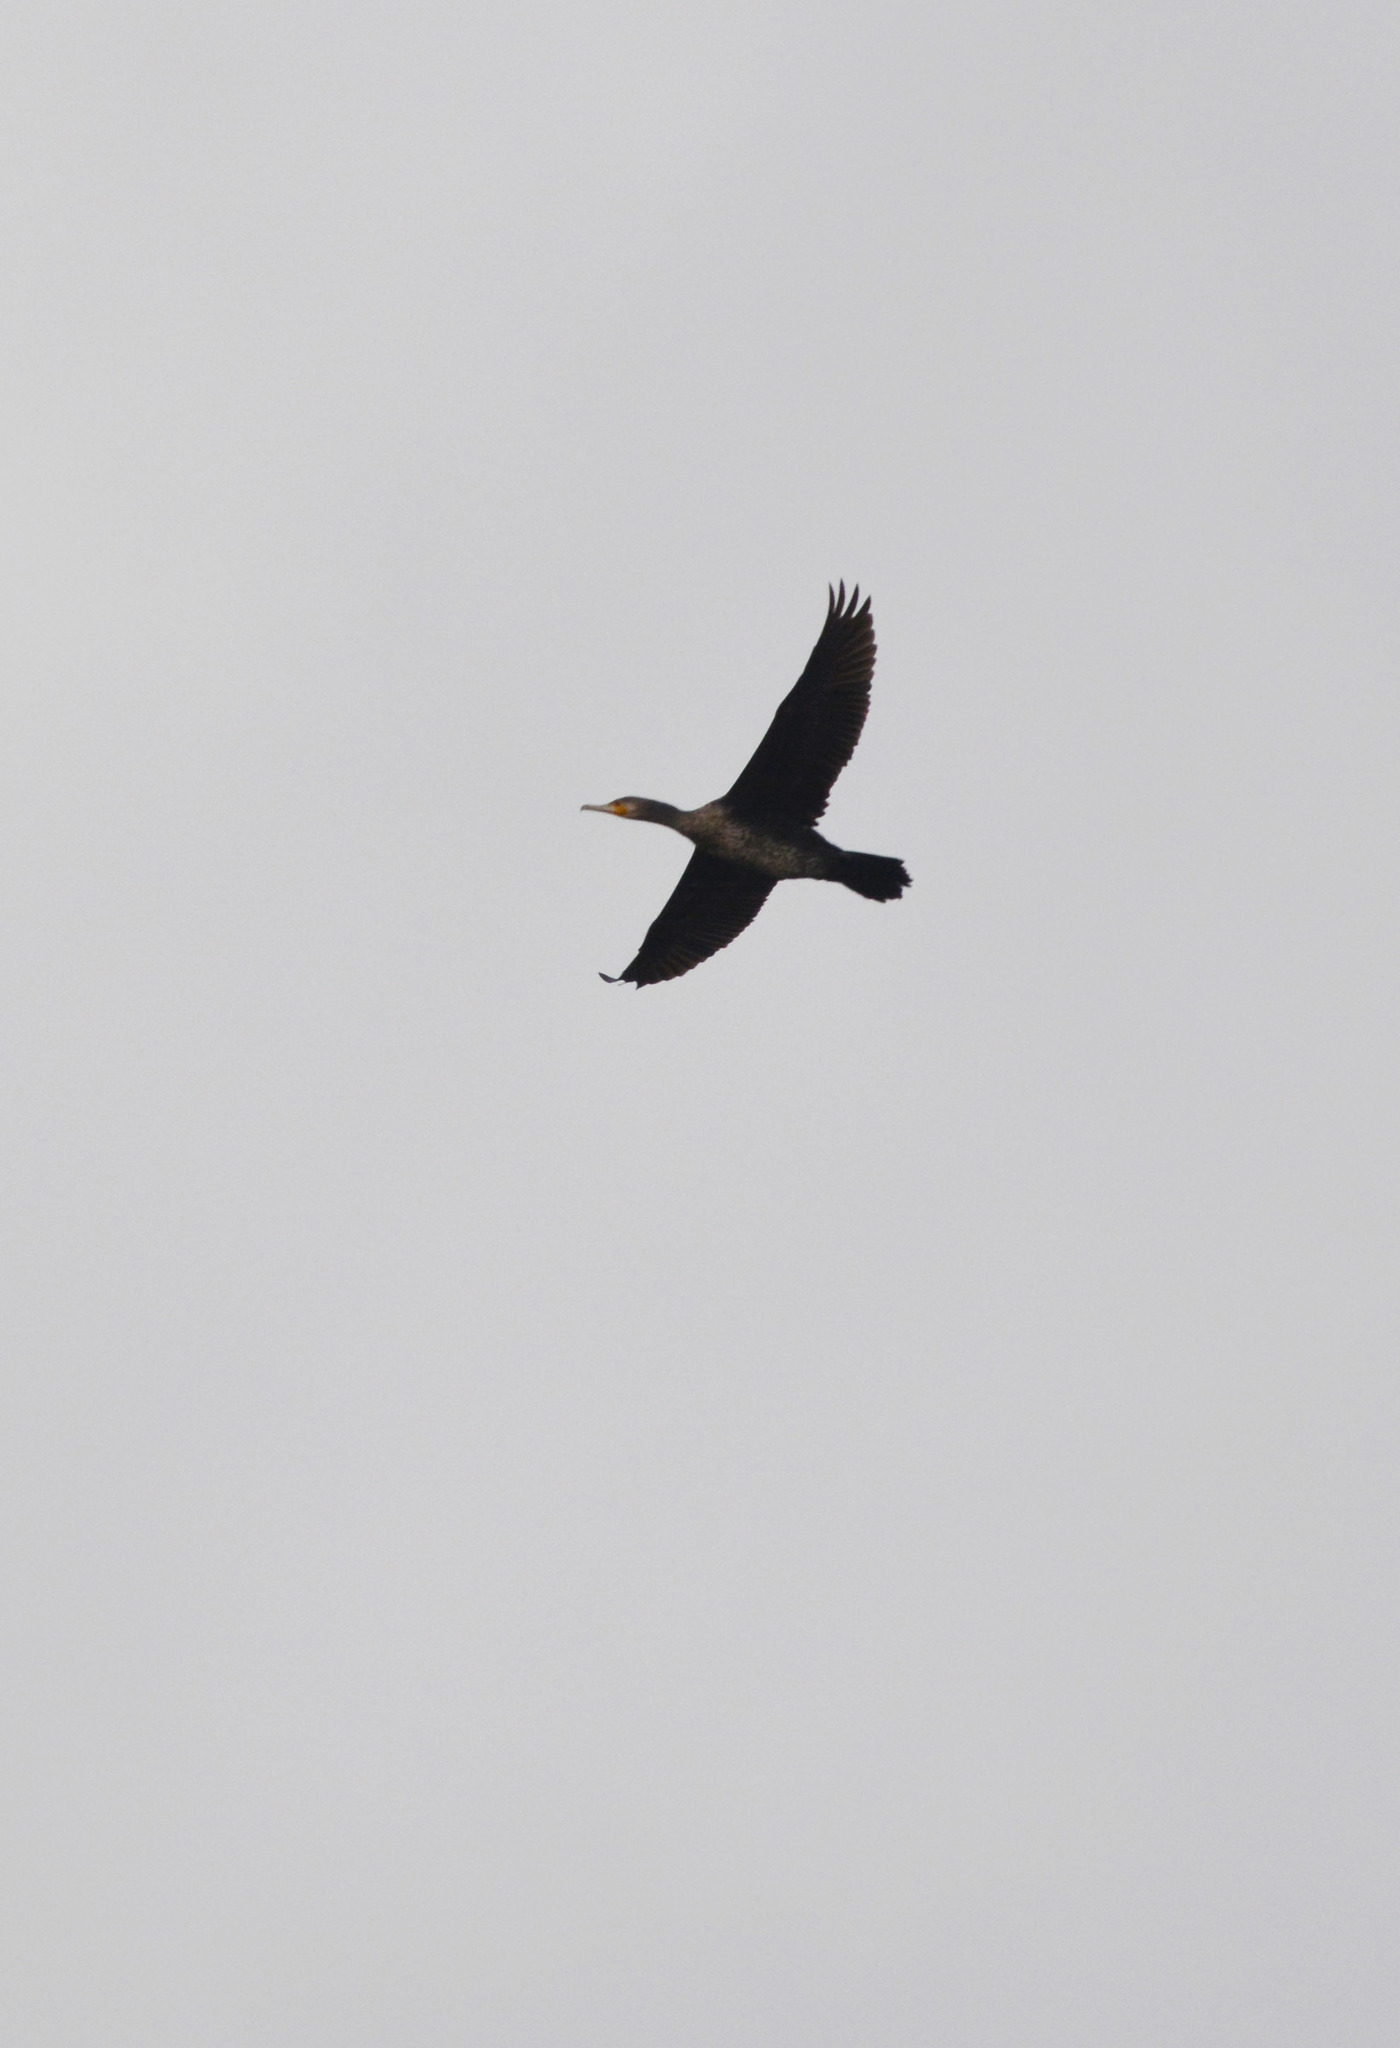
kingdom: Animalia
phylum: Chordata
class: Aves
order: Suliformes
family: Phalacrocoracidae
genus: Phalacrocorax
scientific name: Phalacrocorax carbo
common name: Great cormorant
